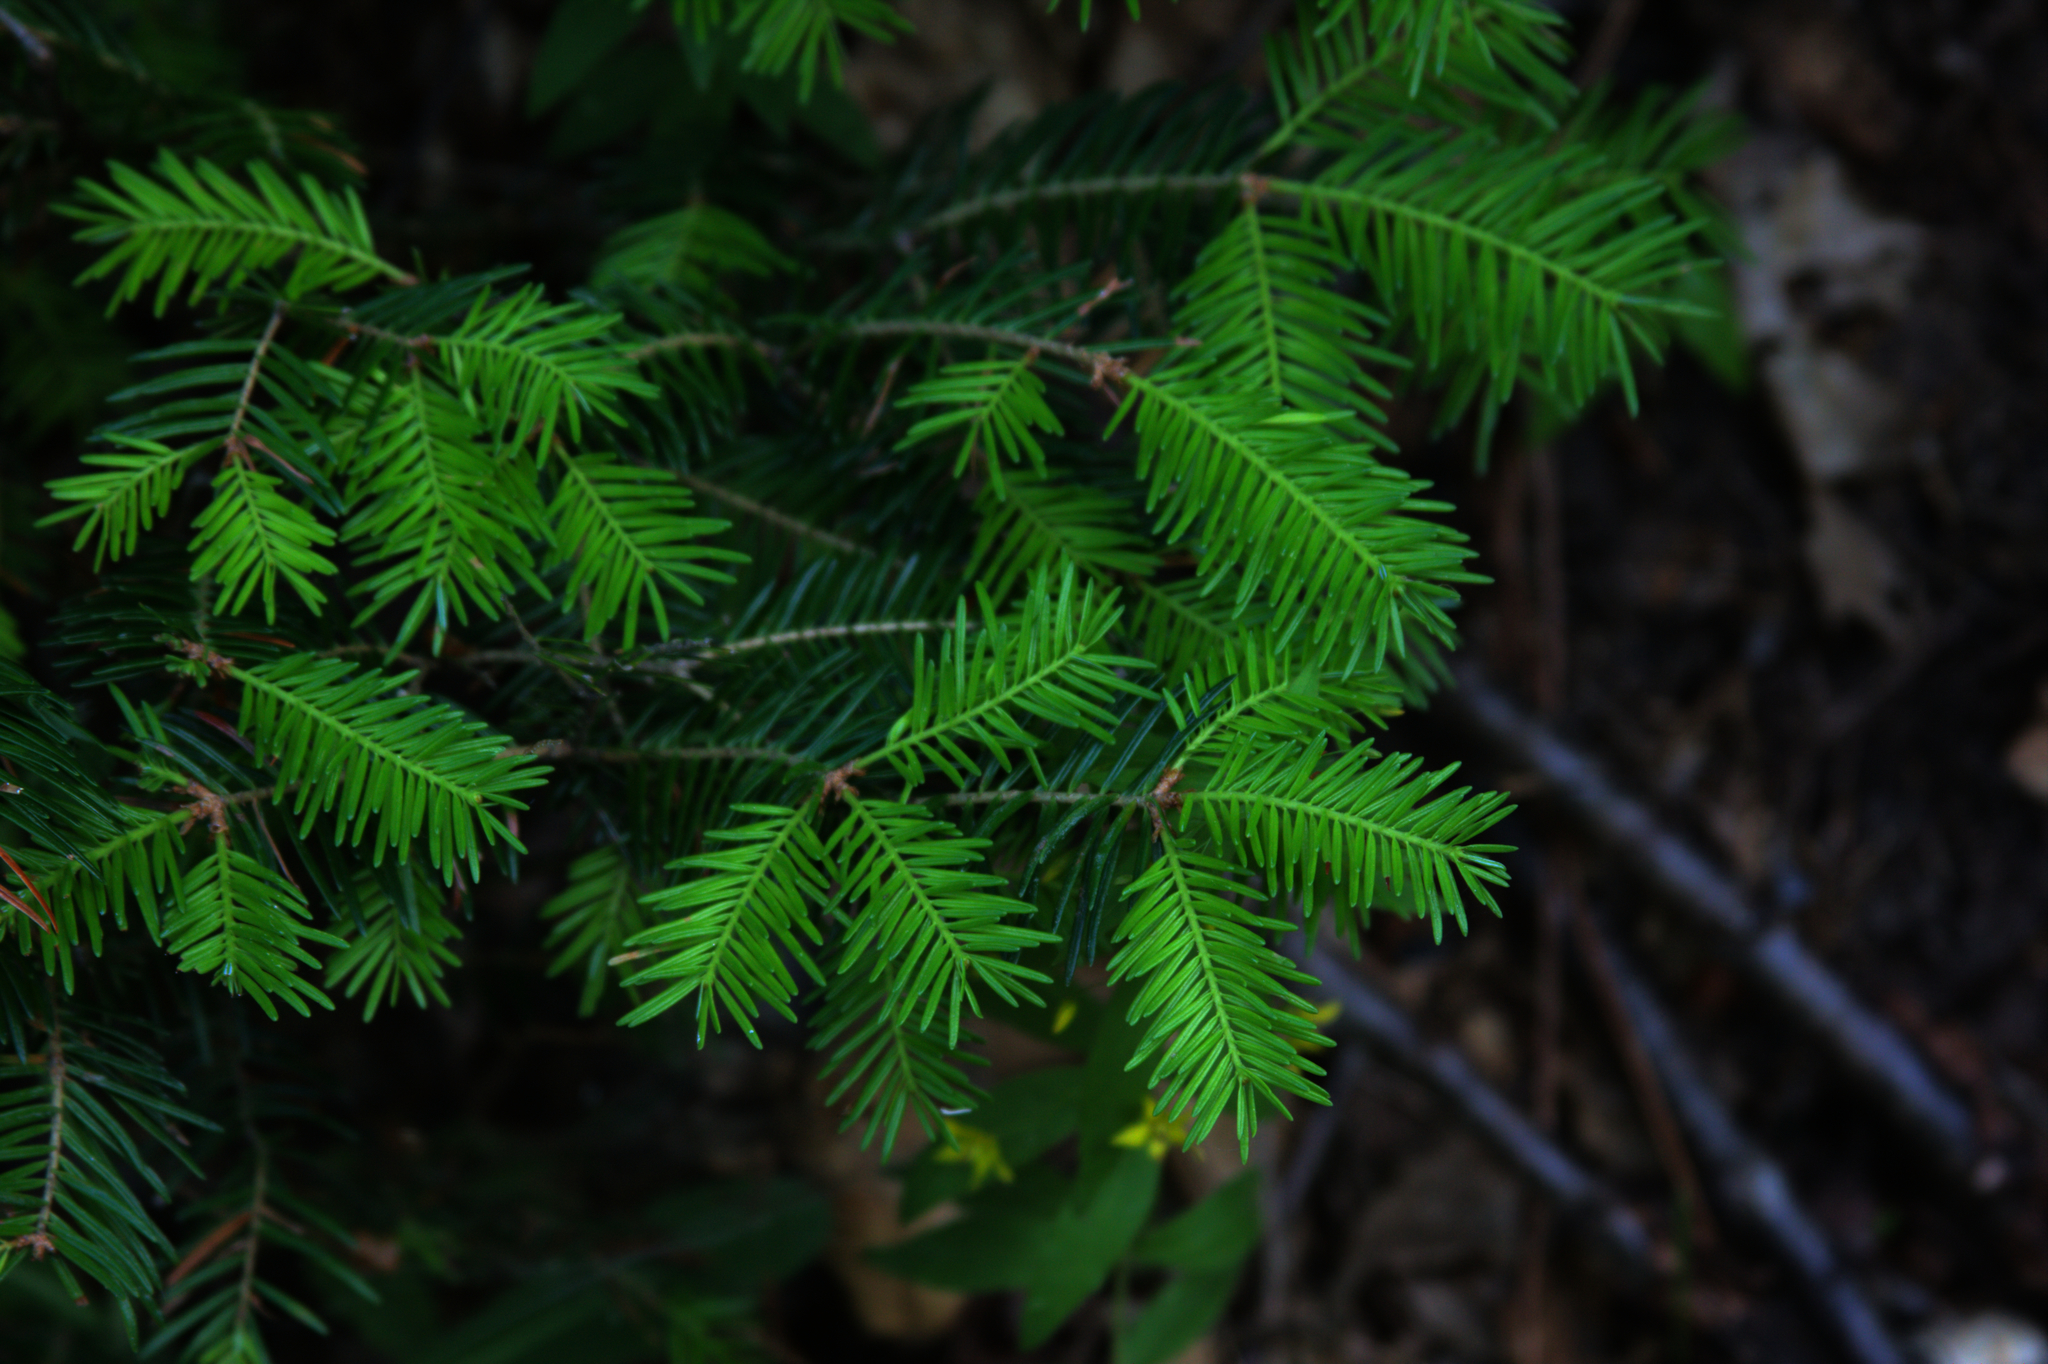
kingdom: Plantae
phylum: Tracheophyta
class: Pinopsida
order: Pinales
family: Pinaceae
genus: Abies
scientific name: Abies balsamea
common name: Balsam fir
